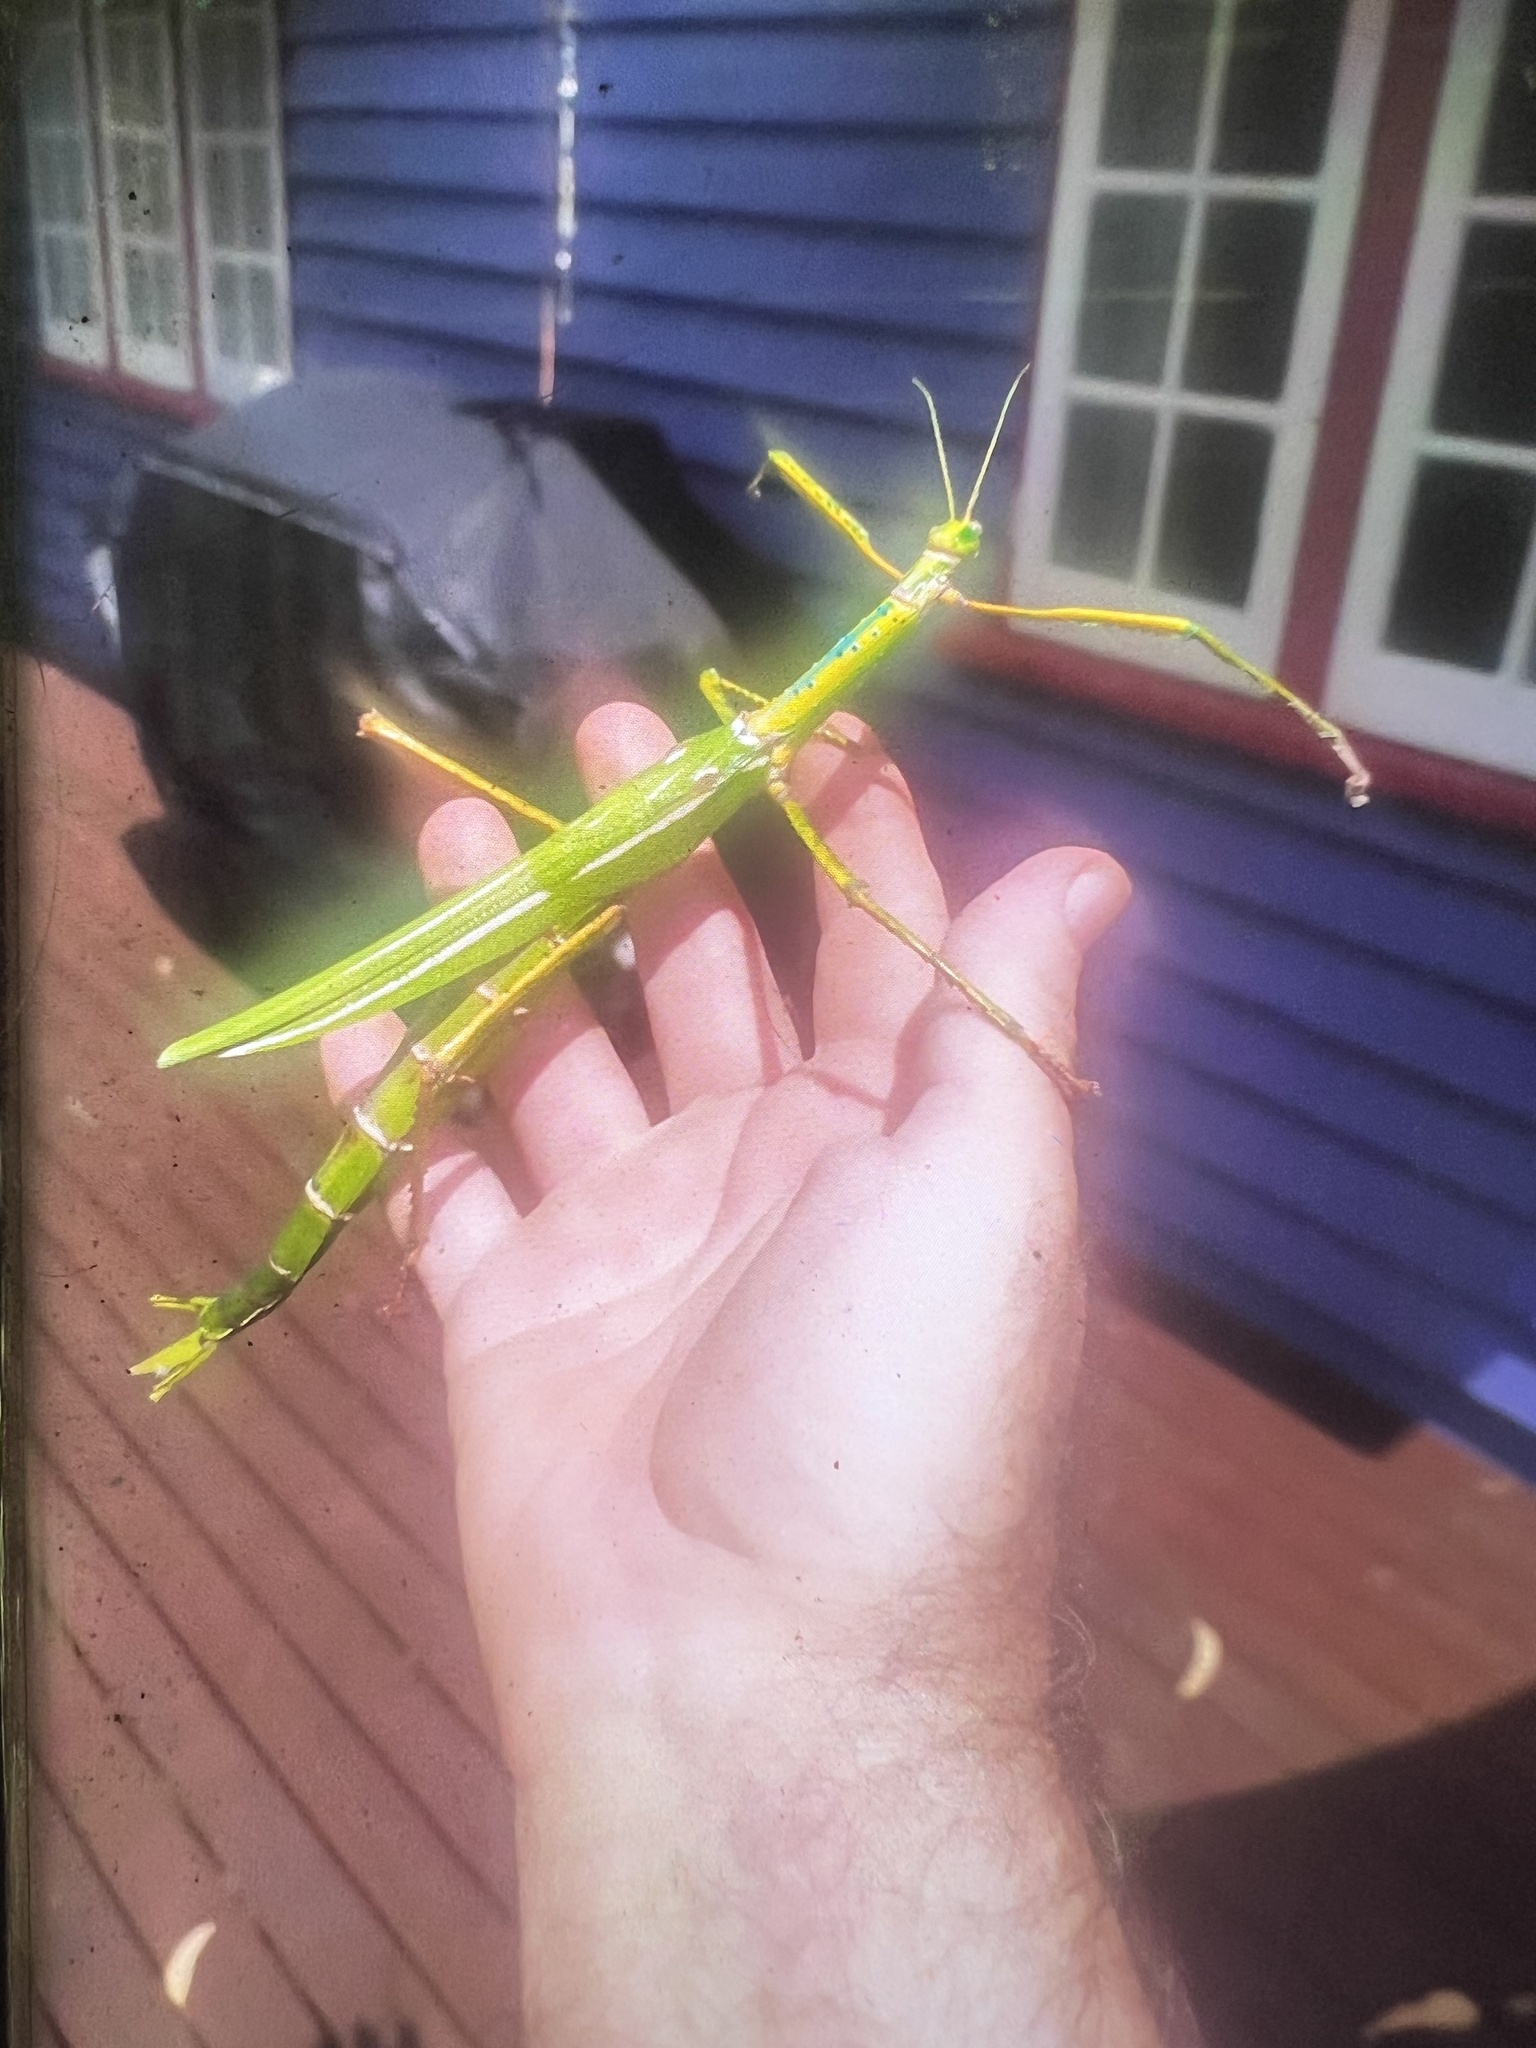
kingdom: Animalia
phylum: Arthropoda
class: Insecta
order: Phasmida
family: Phasmatidae
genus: Eurycnema
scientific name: Eurycnema goliath
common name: Goliath stick insect
